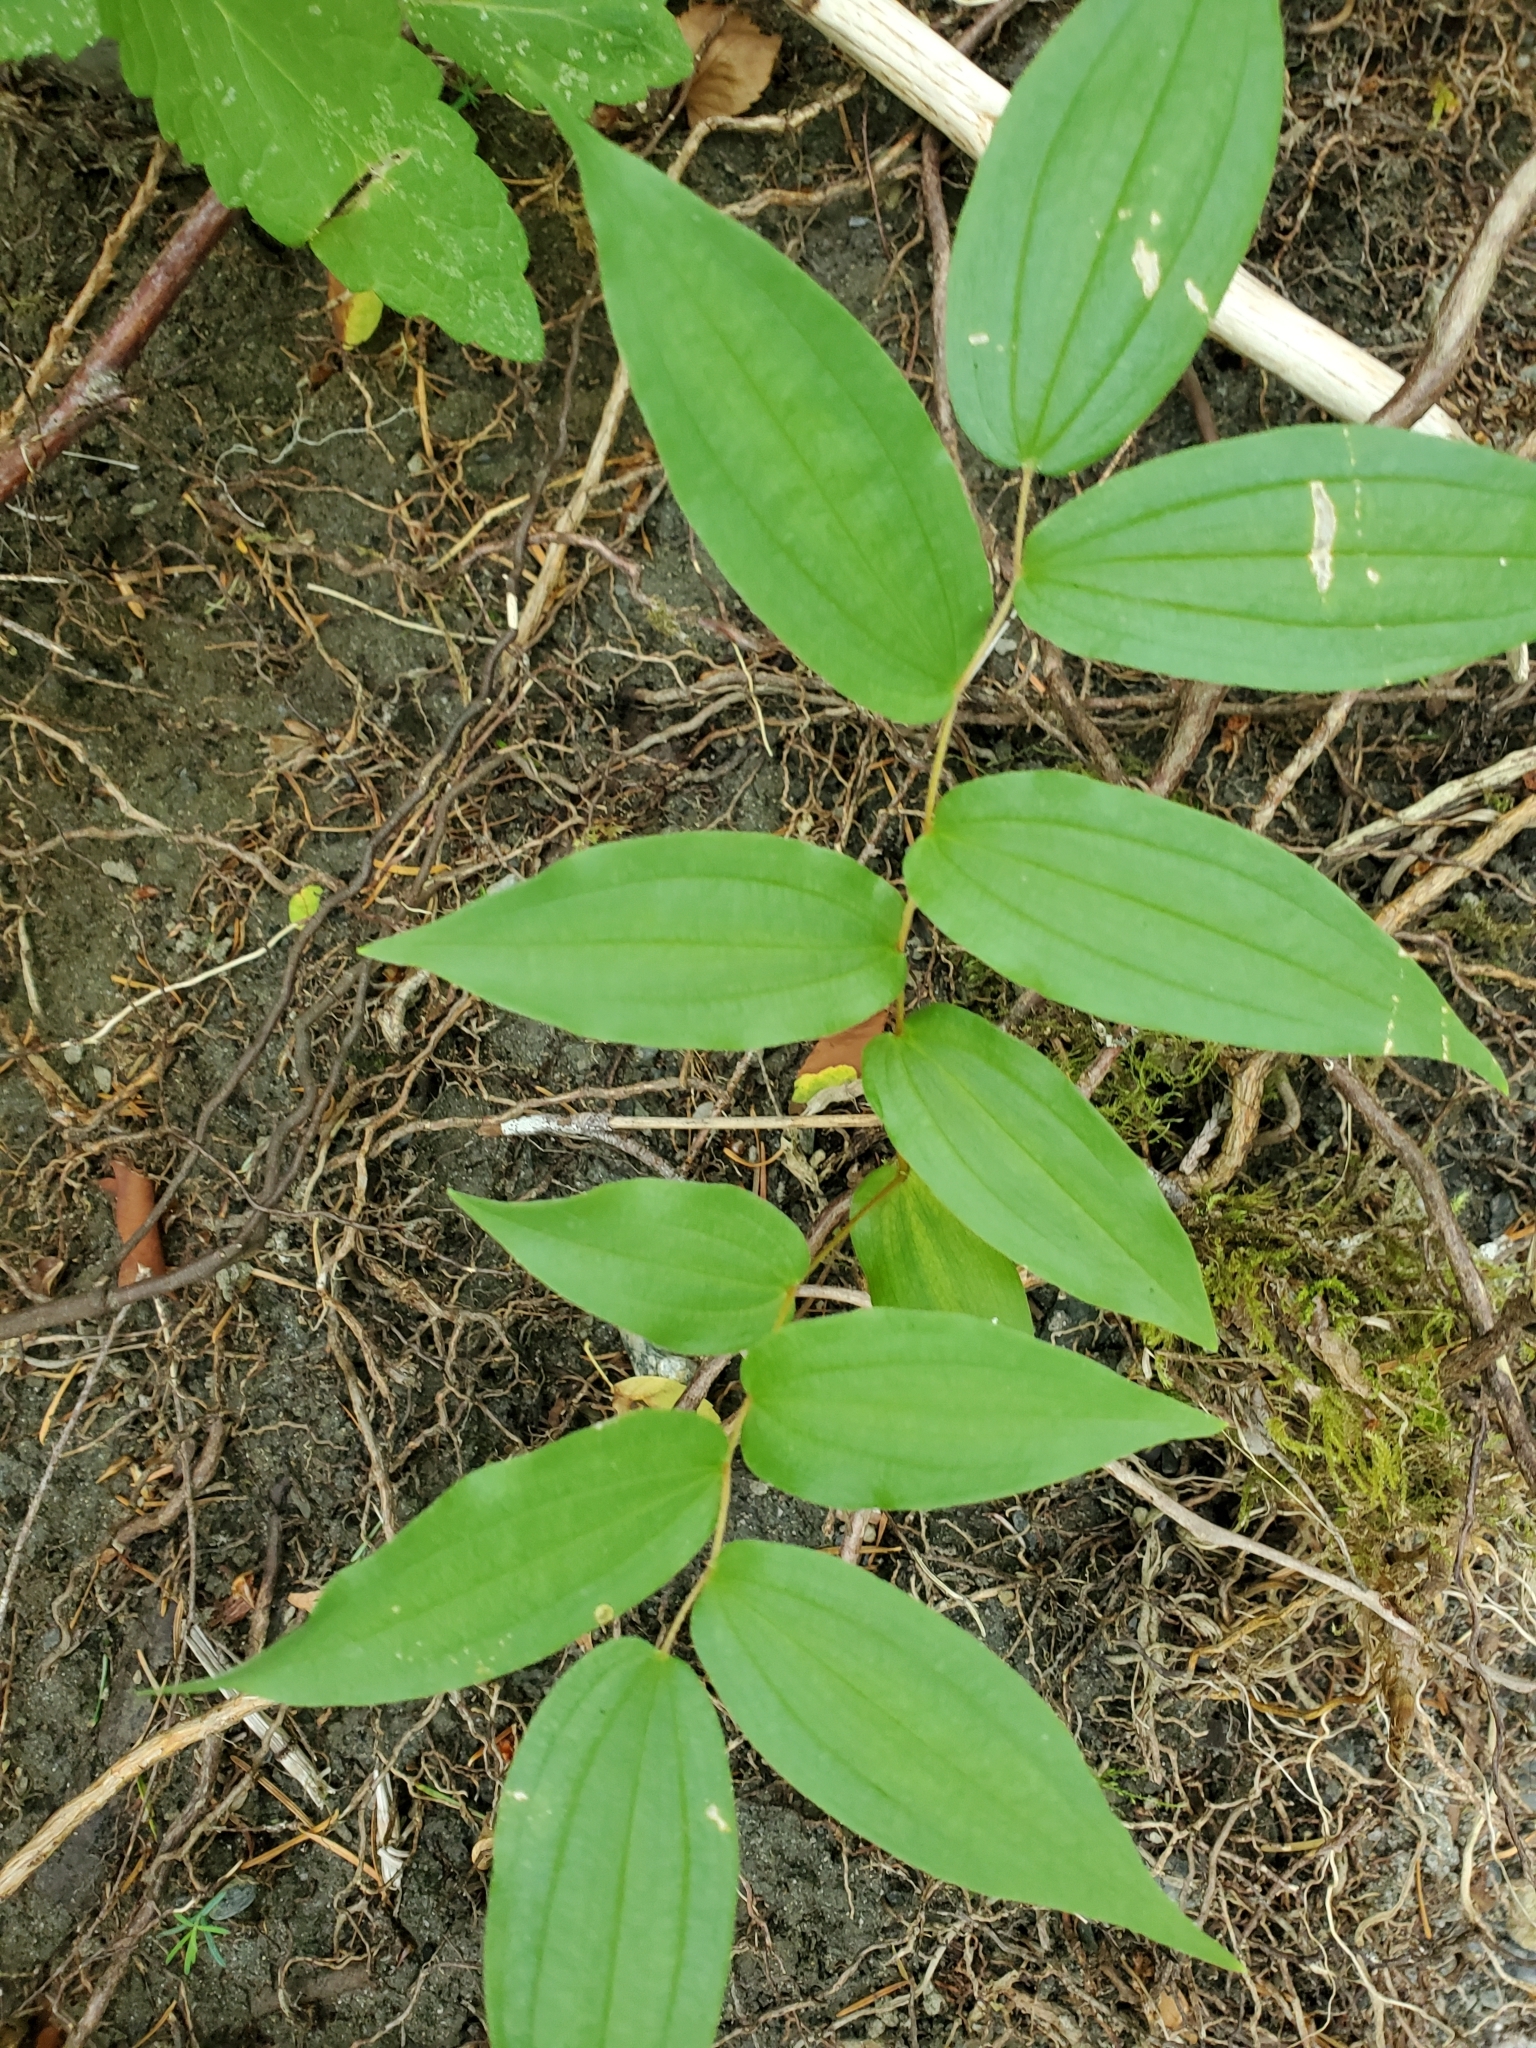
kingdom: Plantae
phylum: Tracheophyta
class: Liliopsida
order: Liliales
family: Liliaceae
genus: Prosartes
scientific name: Prosartes hookeri
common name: Fairy-bells
